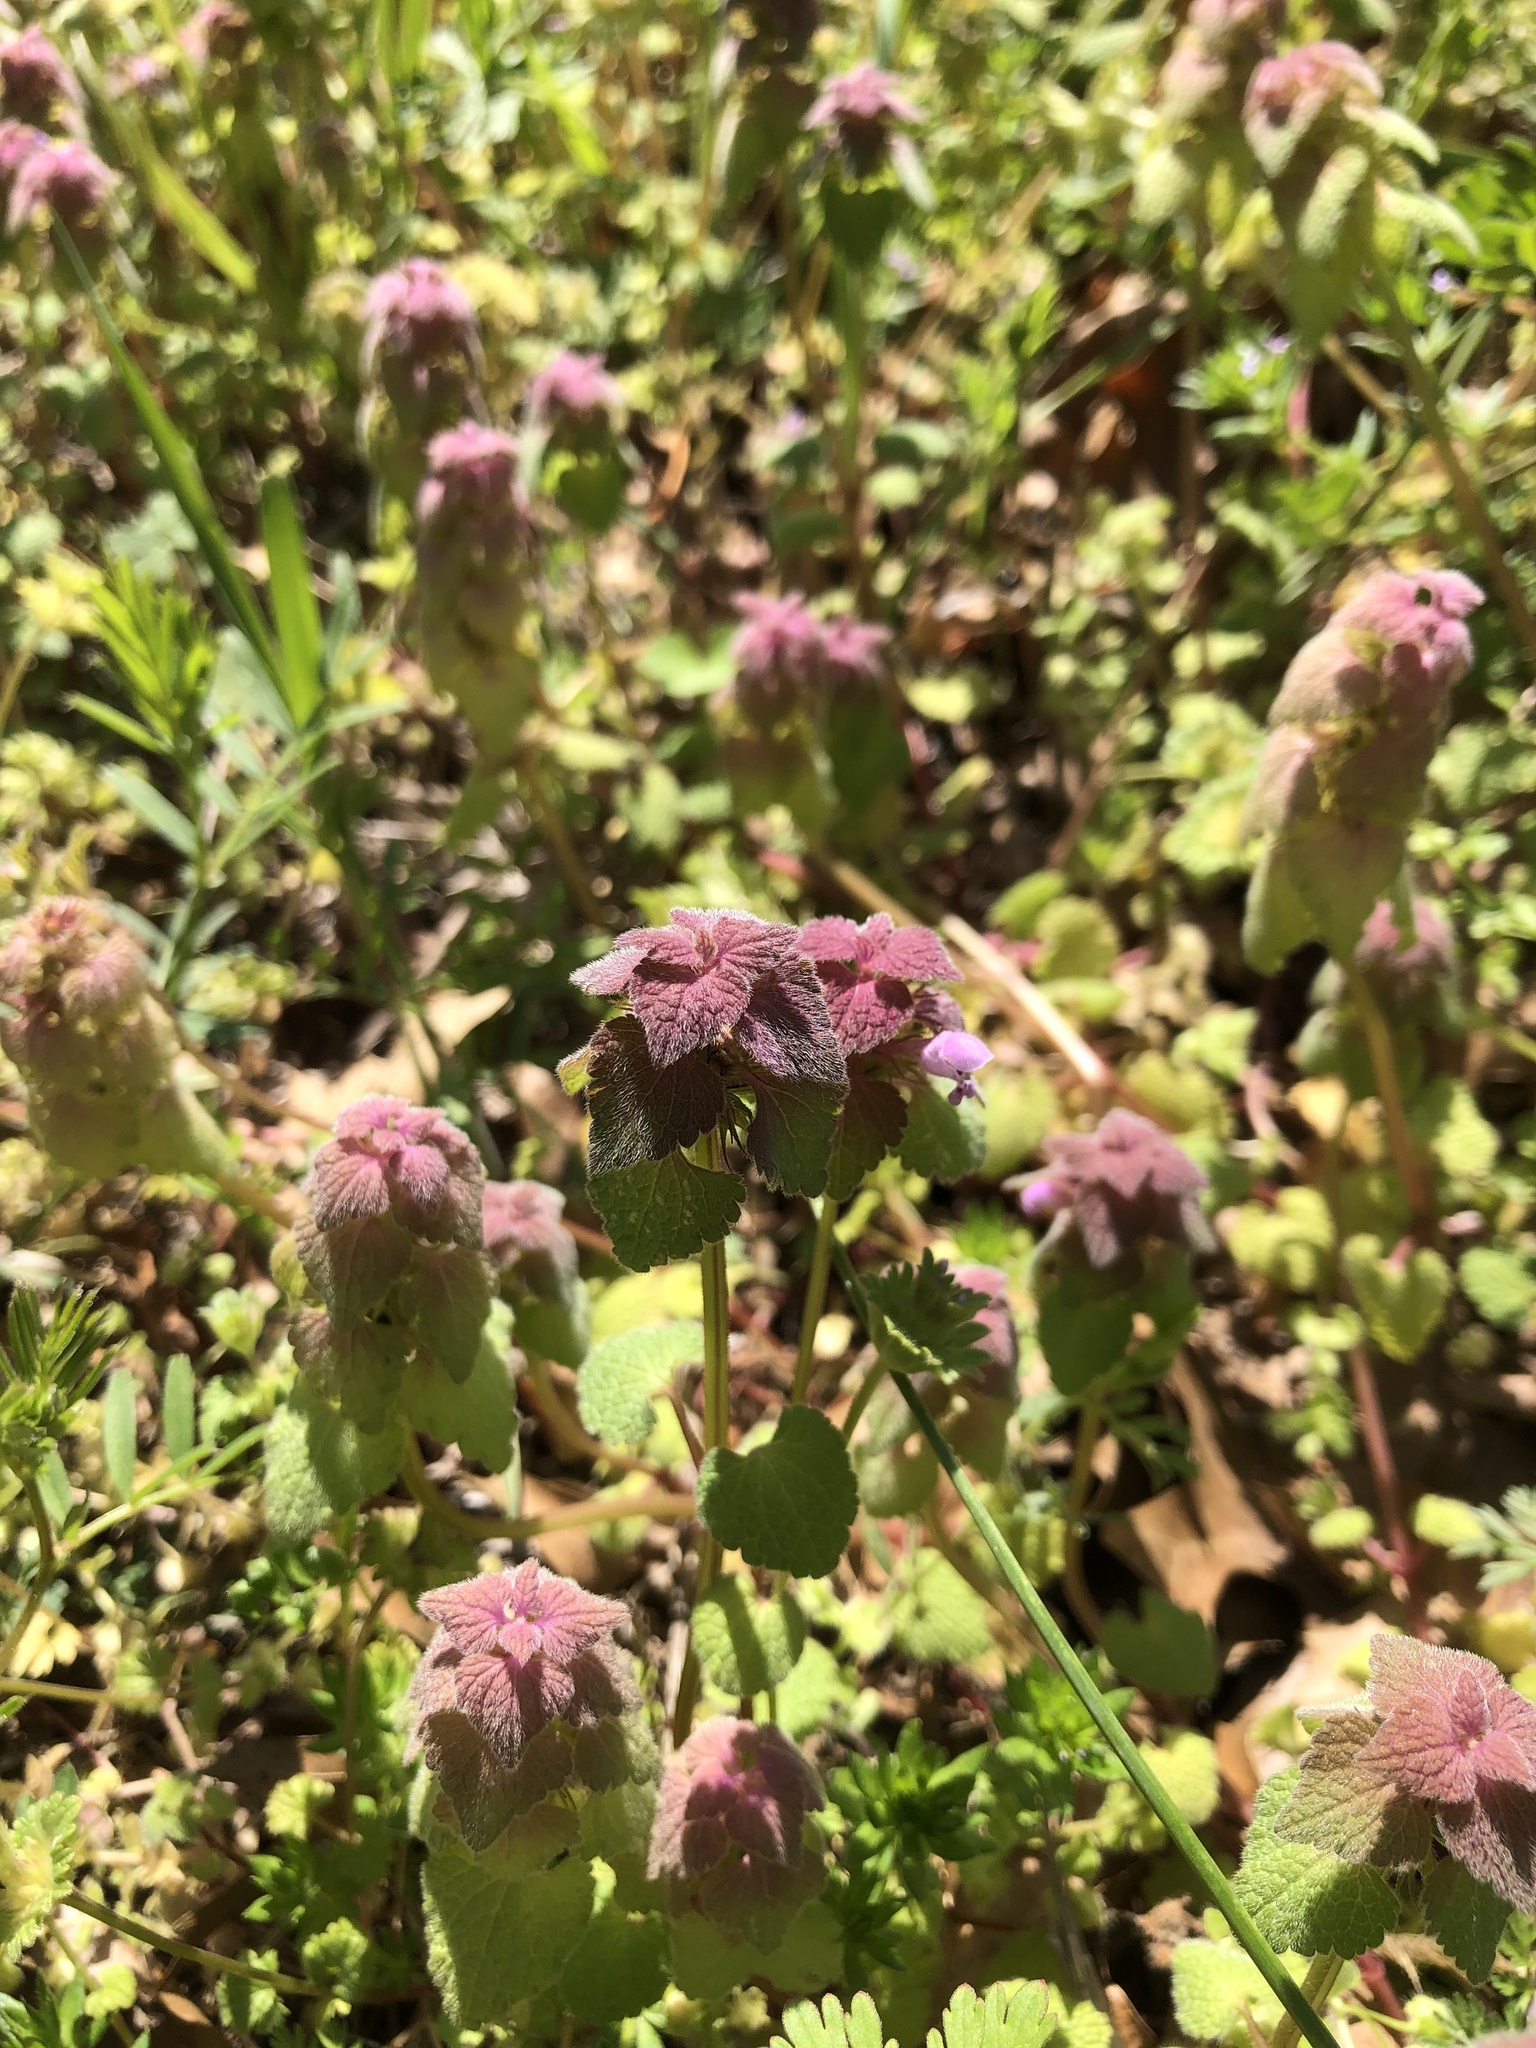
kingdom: Plantae
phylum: Tracheophyta
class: Magnoliopsida
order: Lamiales
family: Lamiaceae
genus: Lamium
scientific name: Lamium purpureum
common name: Red dead-nettle
